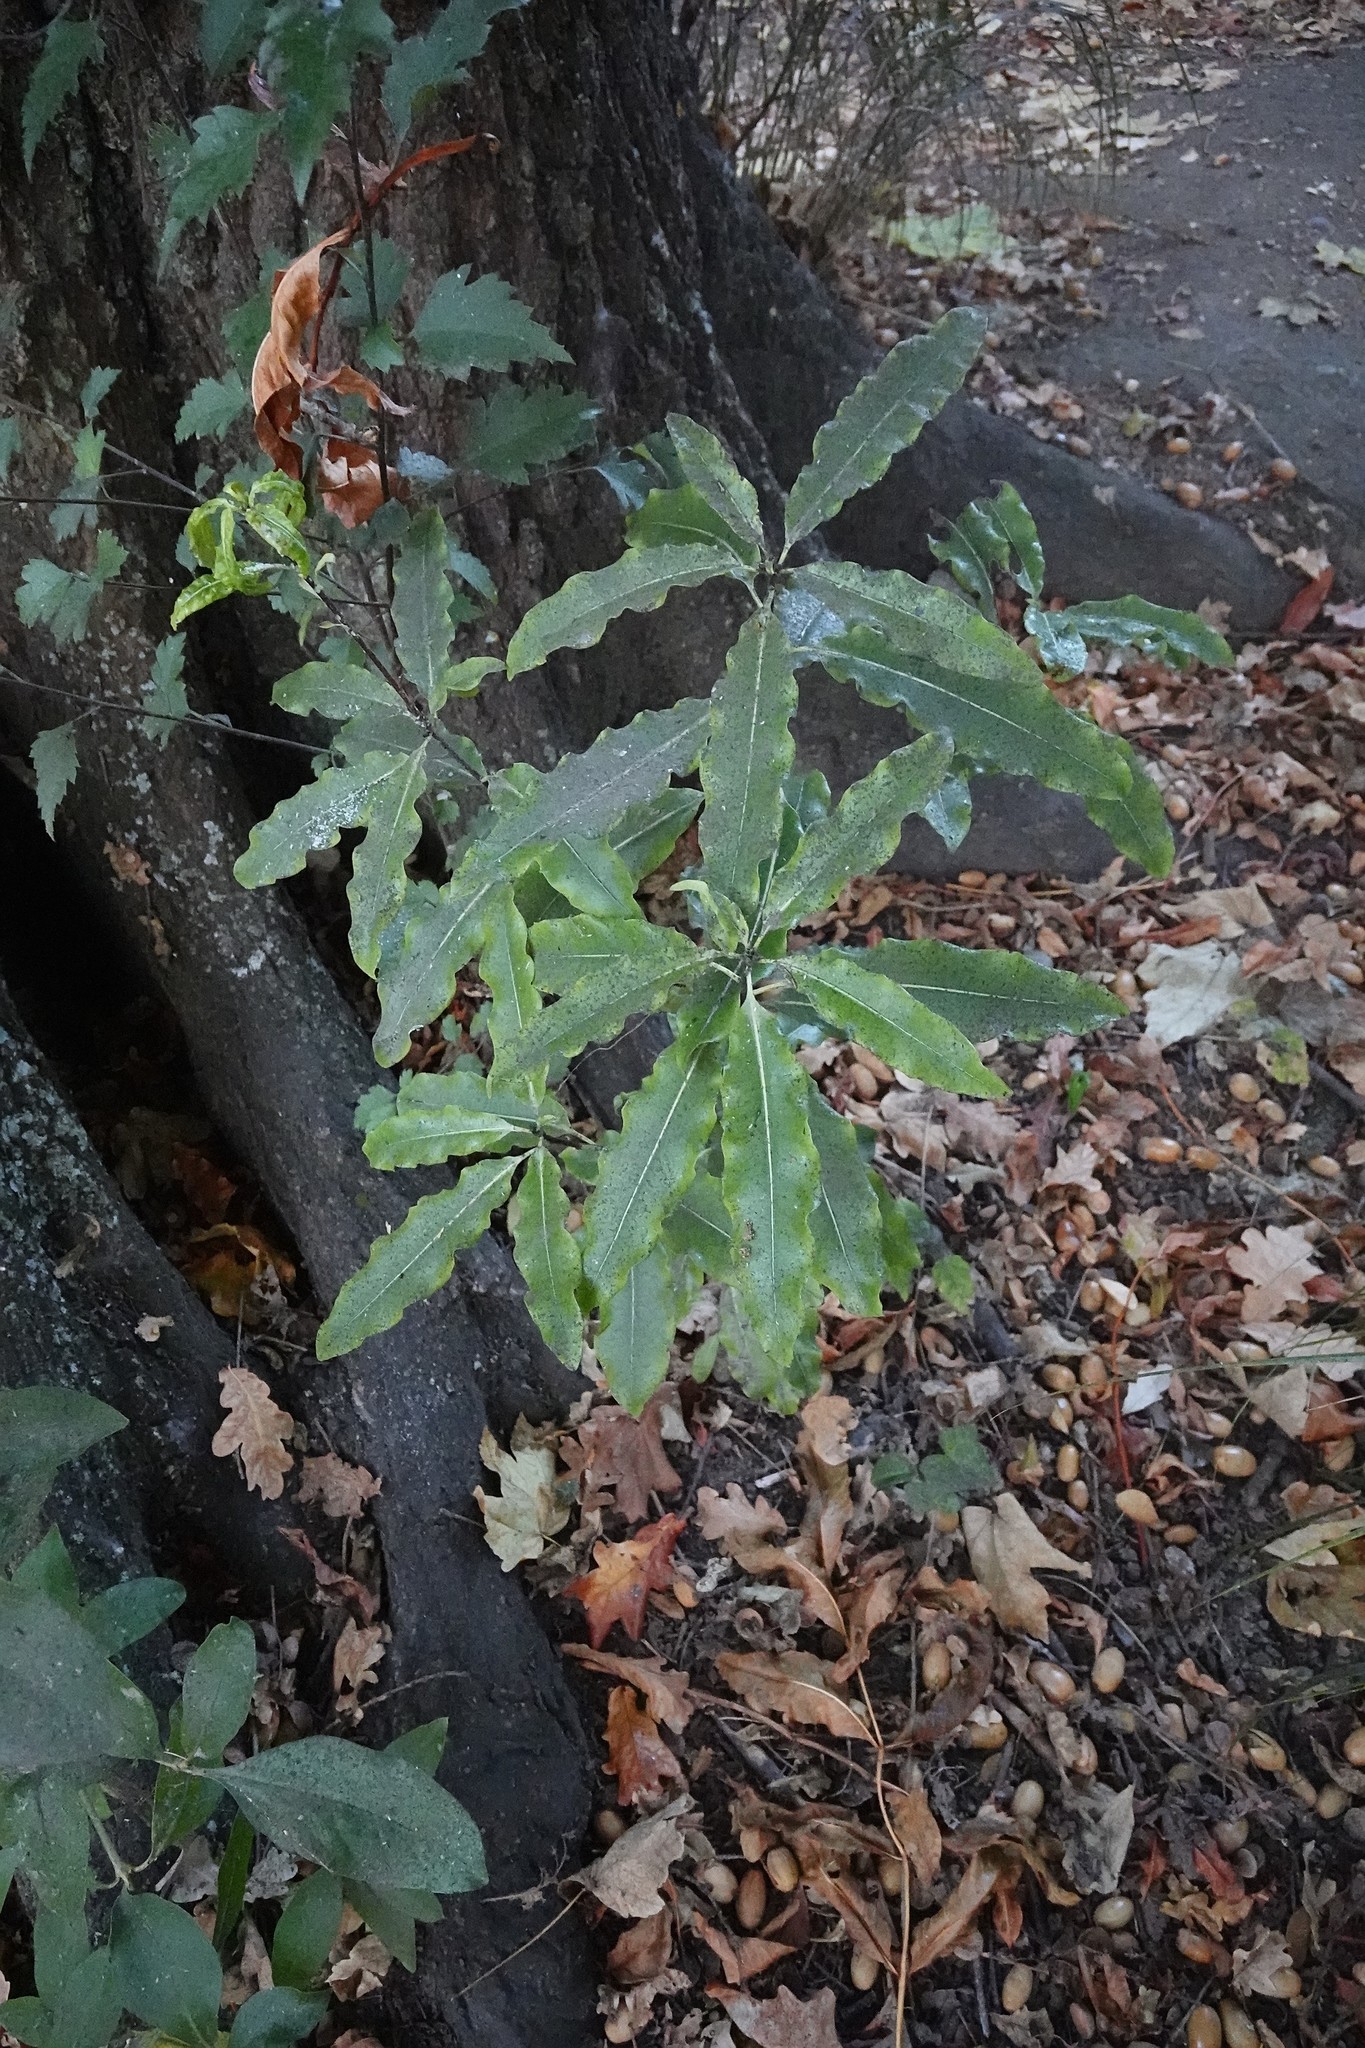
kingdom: Plantae
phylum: Tracheophyta
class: Magnoliopsida
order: Apiales
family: Pittosporaceae
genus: Pittosporum
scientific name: Pittosporum eugenioides
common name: Lemonwood
